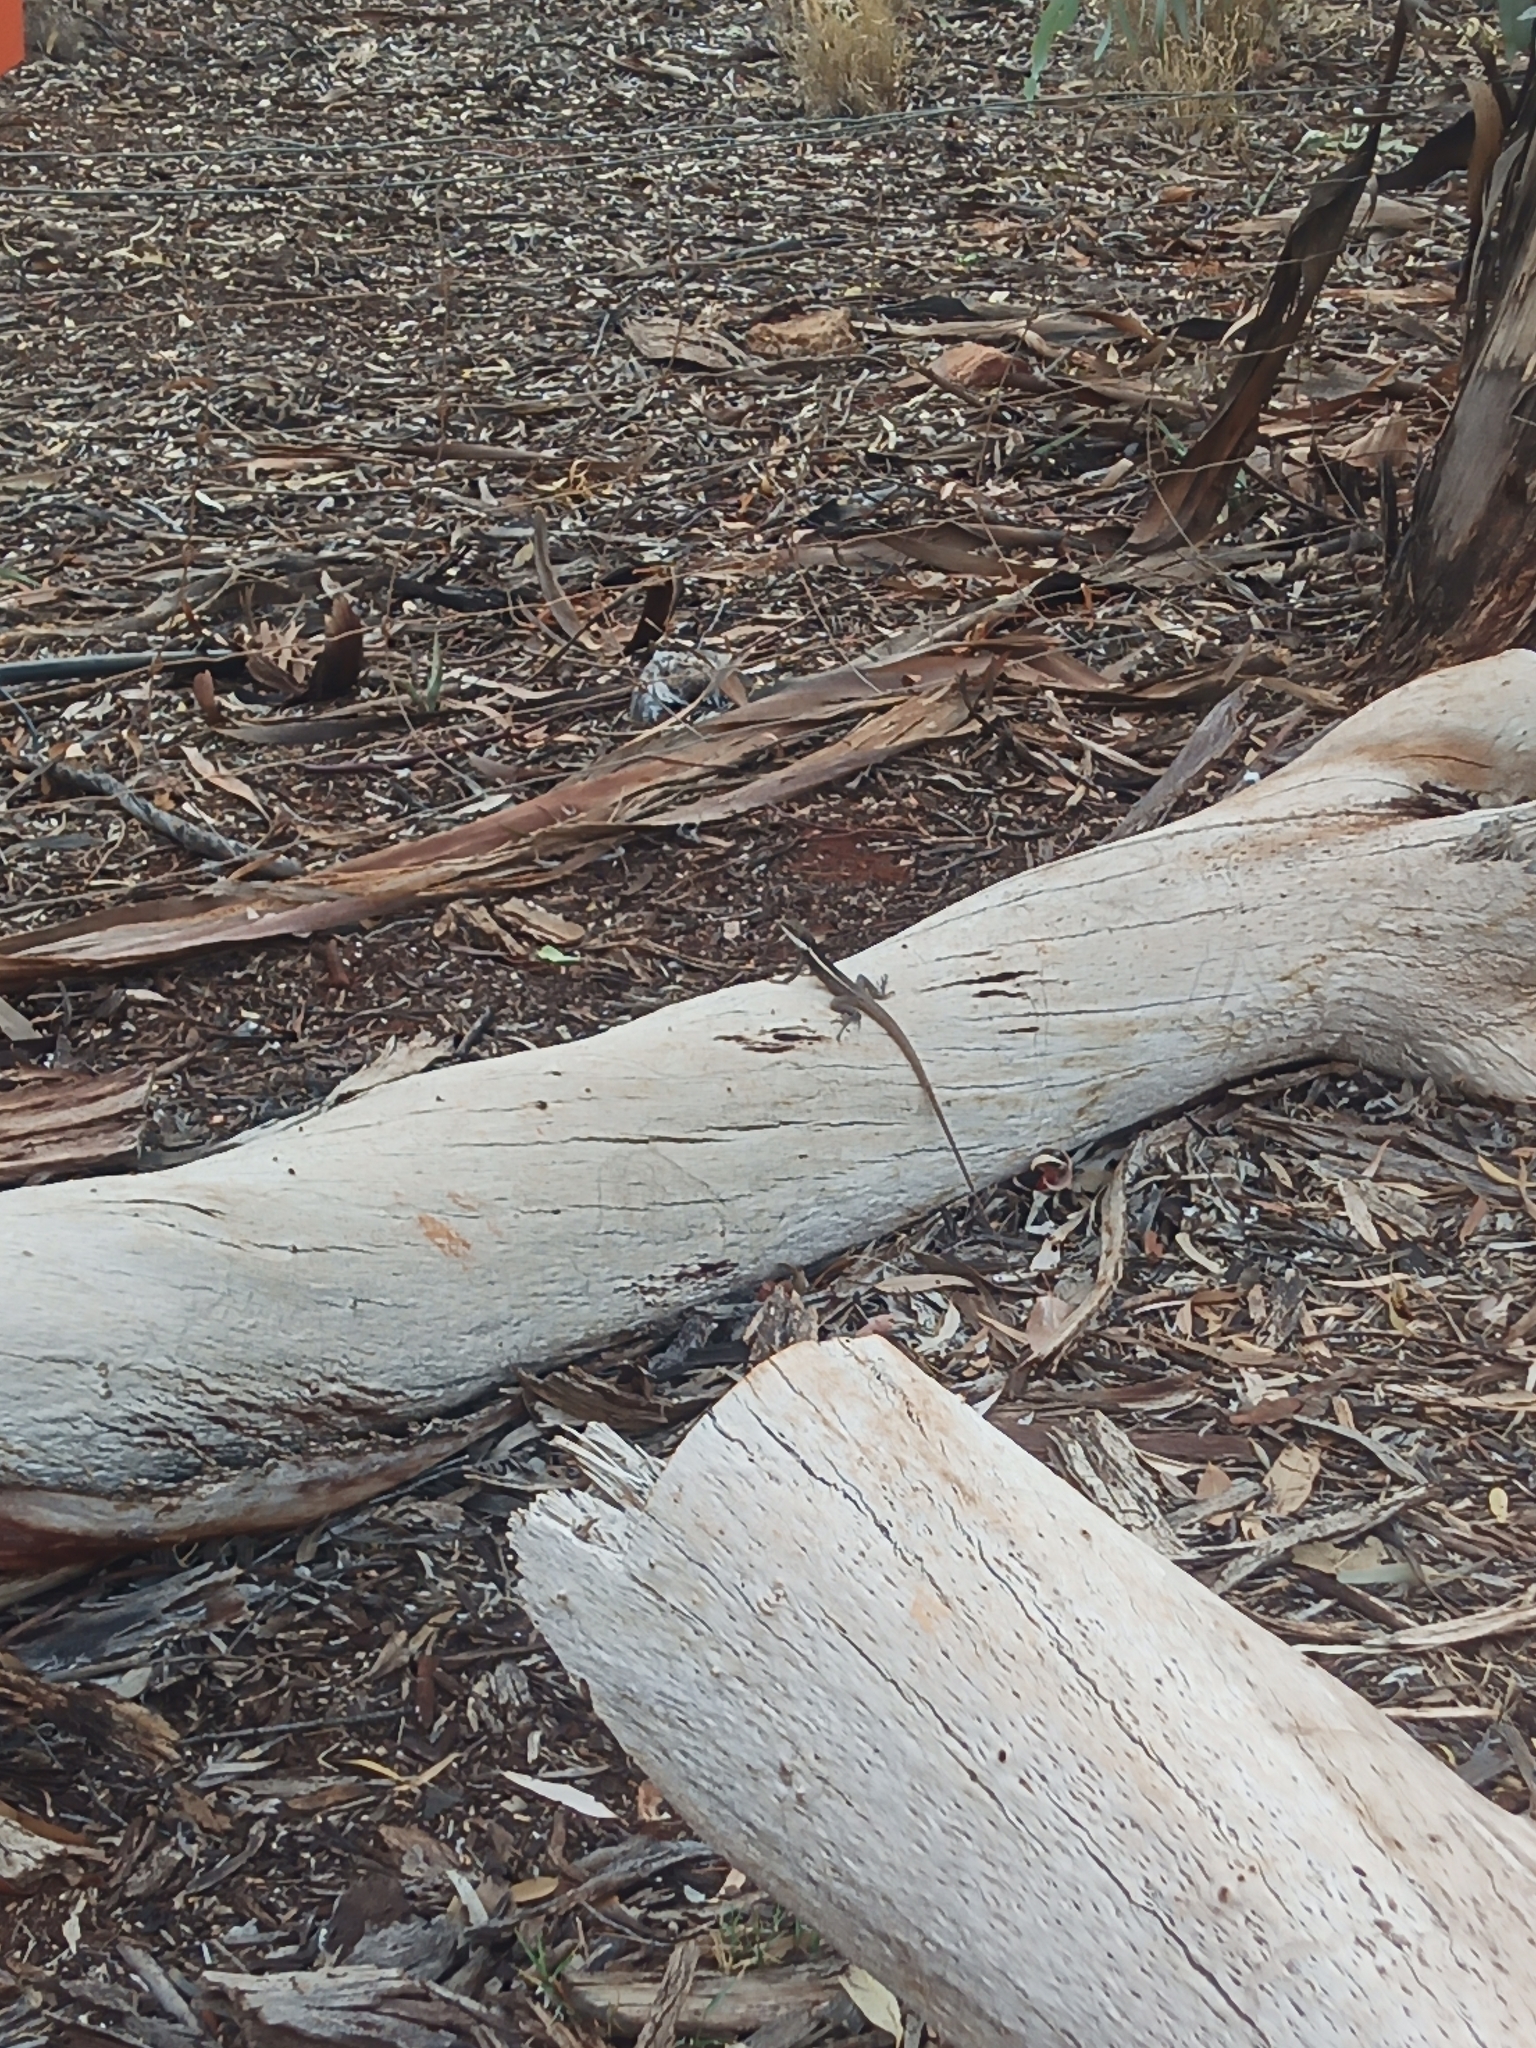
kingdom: Animalia
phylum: Chordata
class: Squamata
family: Agamidae
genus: Gowidon
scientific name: Gowidon longirostris
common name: Long-nosed water dragon
